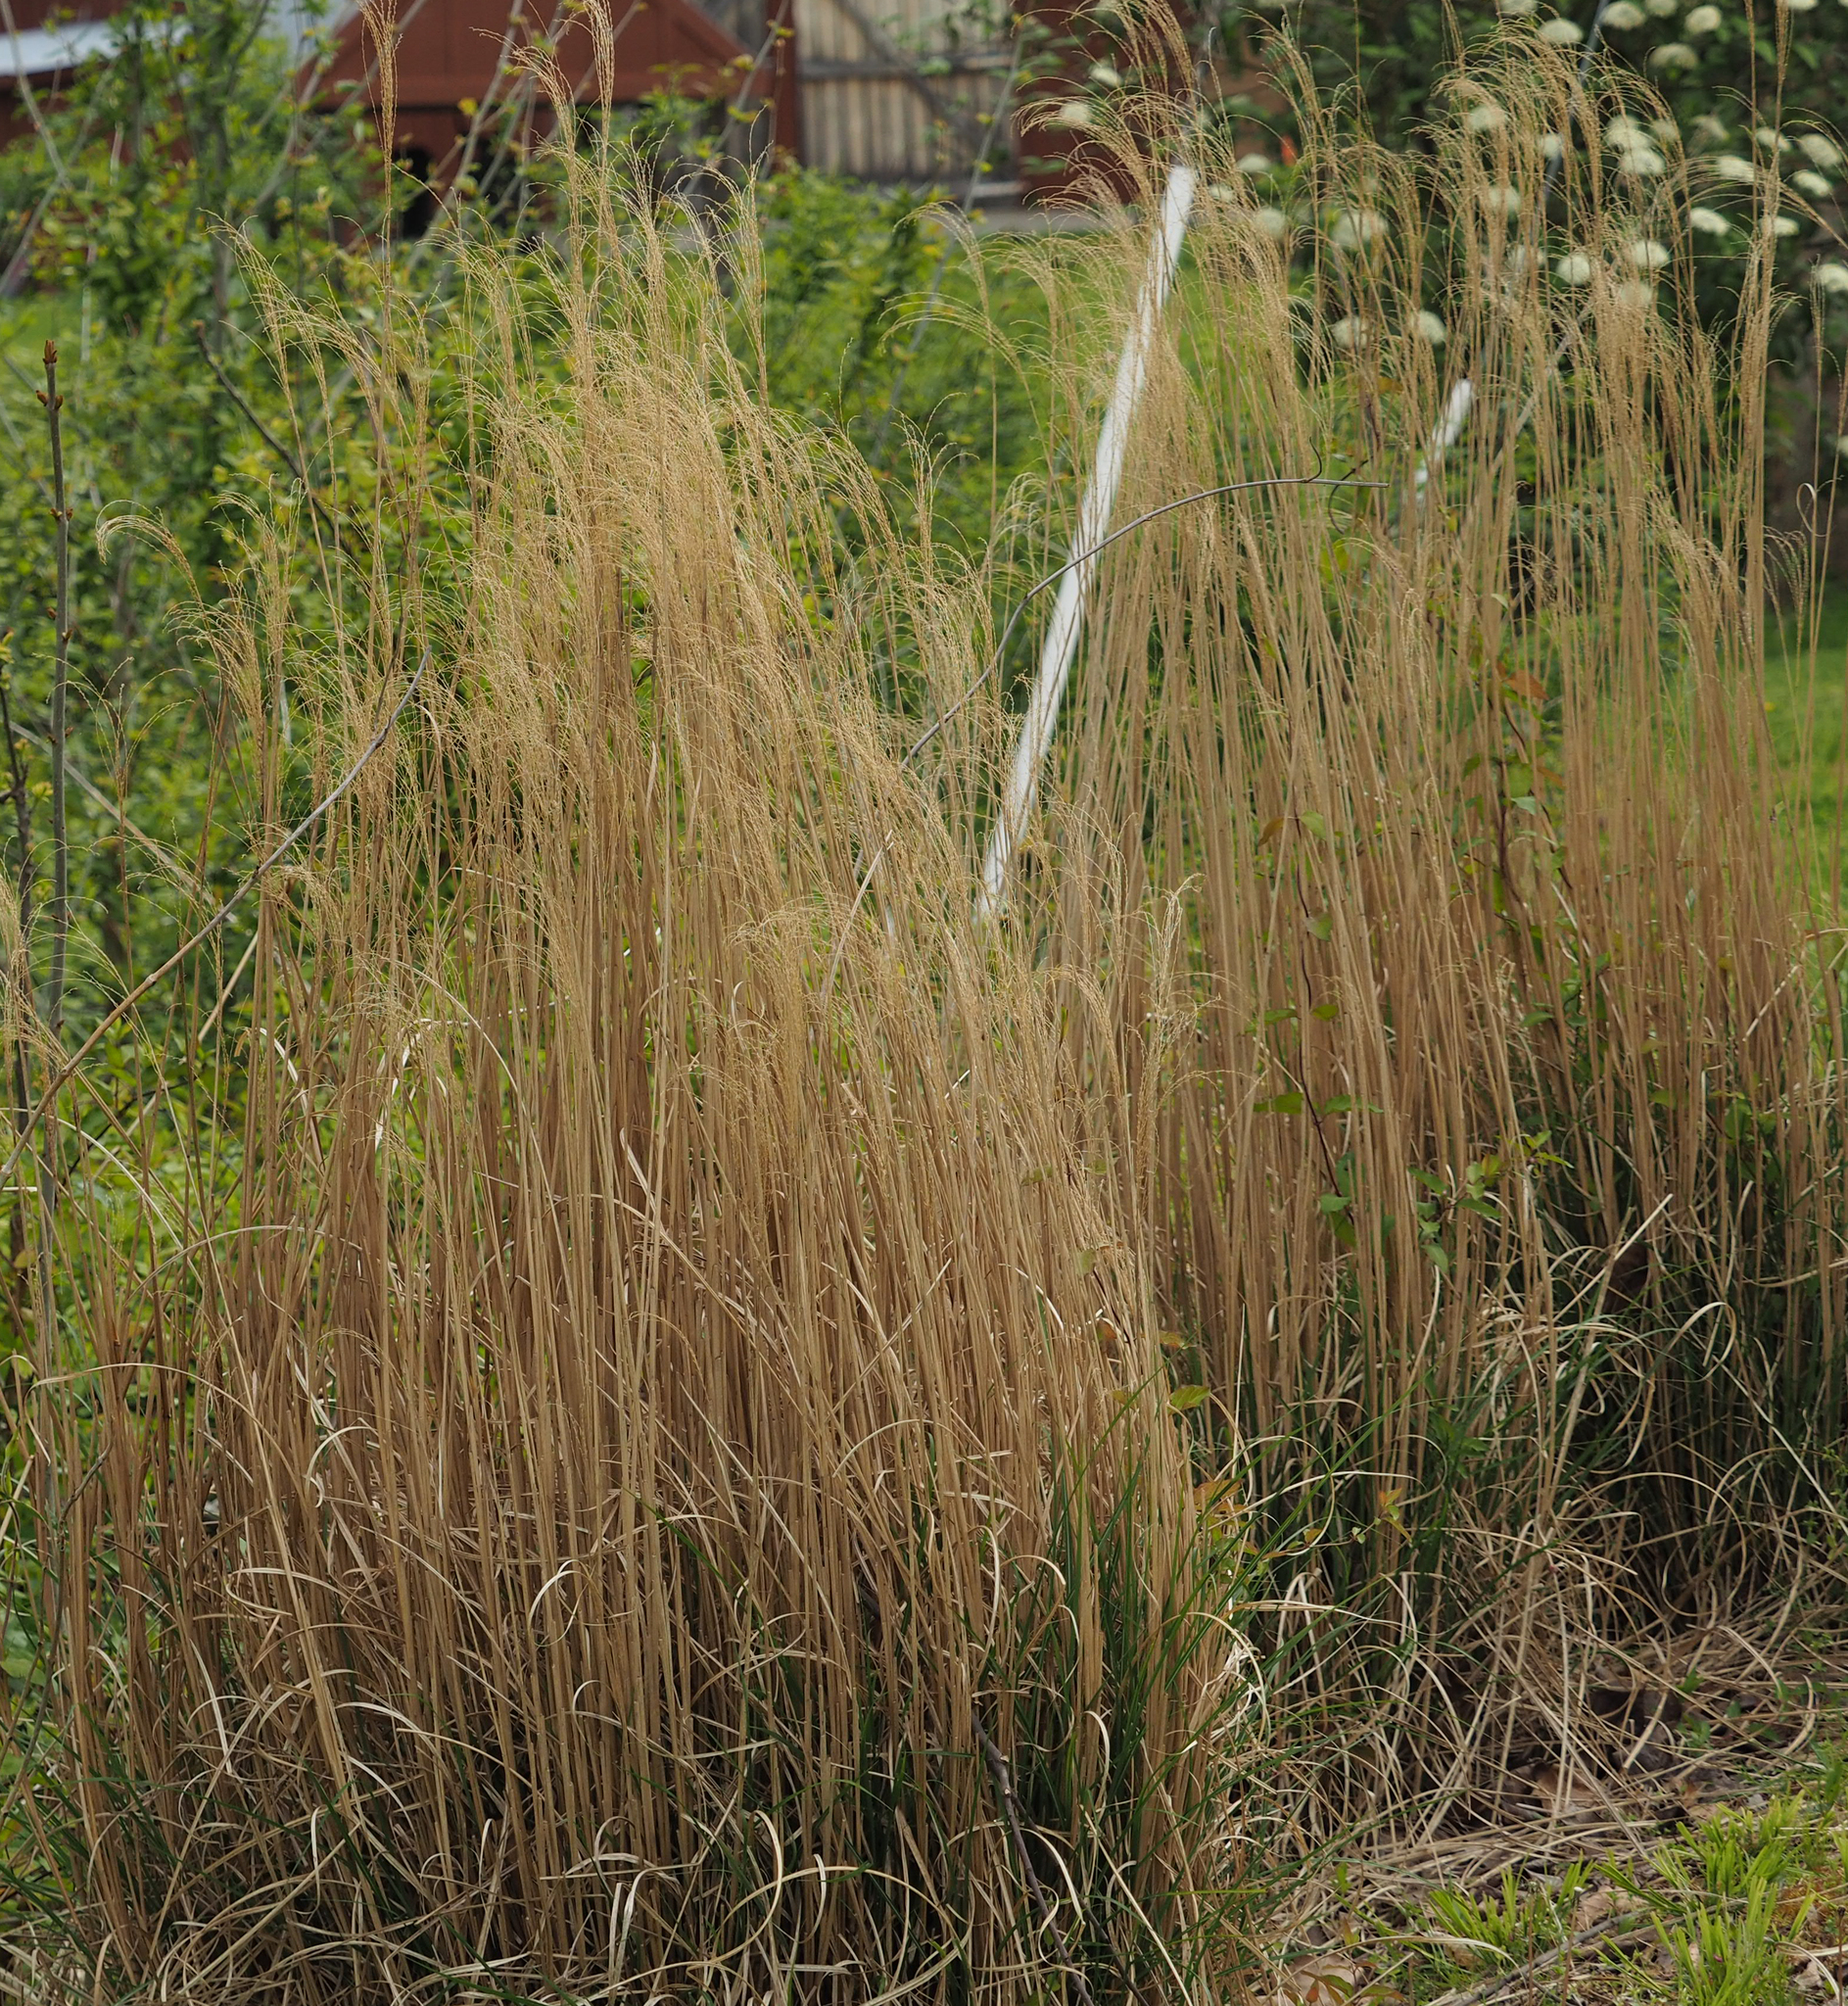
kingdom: Plantae
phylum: Tracheophyta
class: Liliopsida
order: Poales
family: Poaceae
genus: Miscanthus
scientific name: Miscanthus sinensis
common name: Chinese silvergrass
